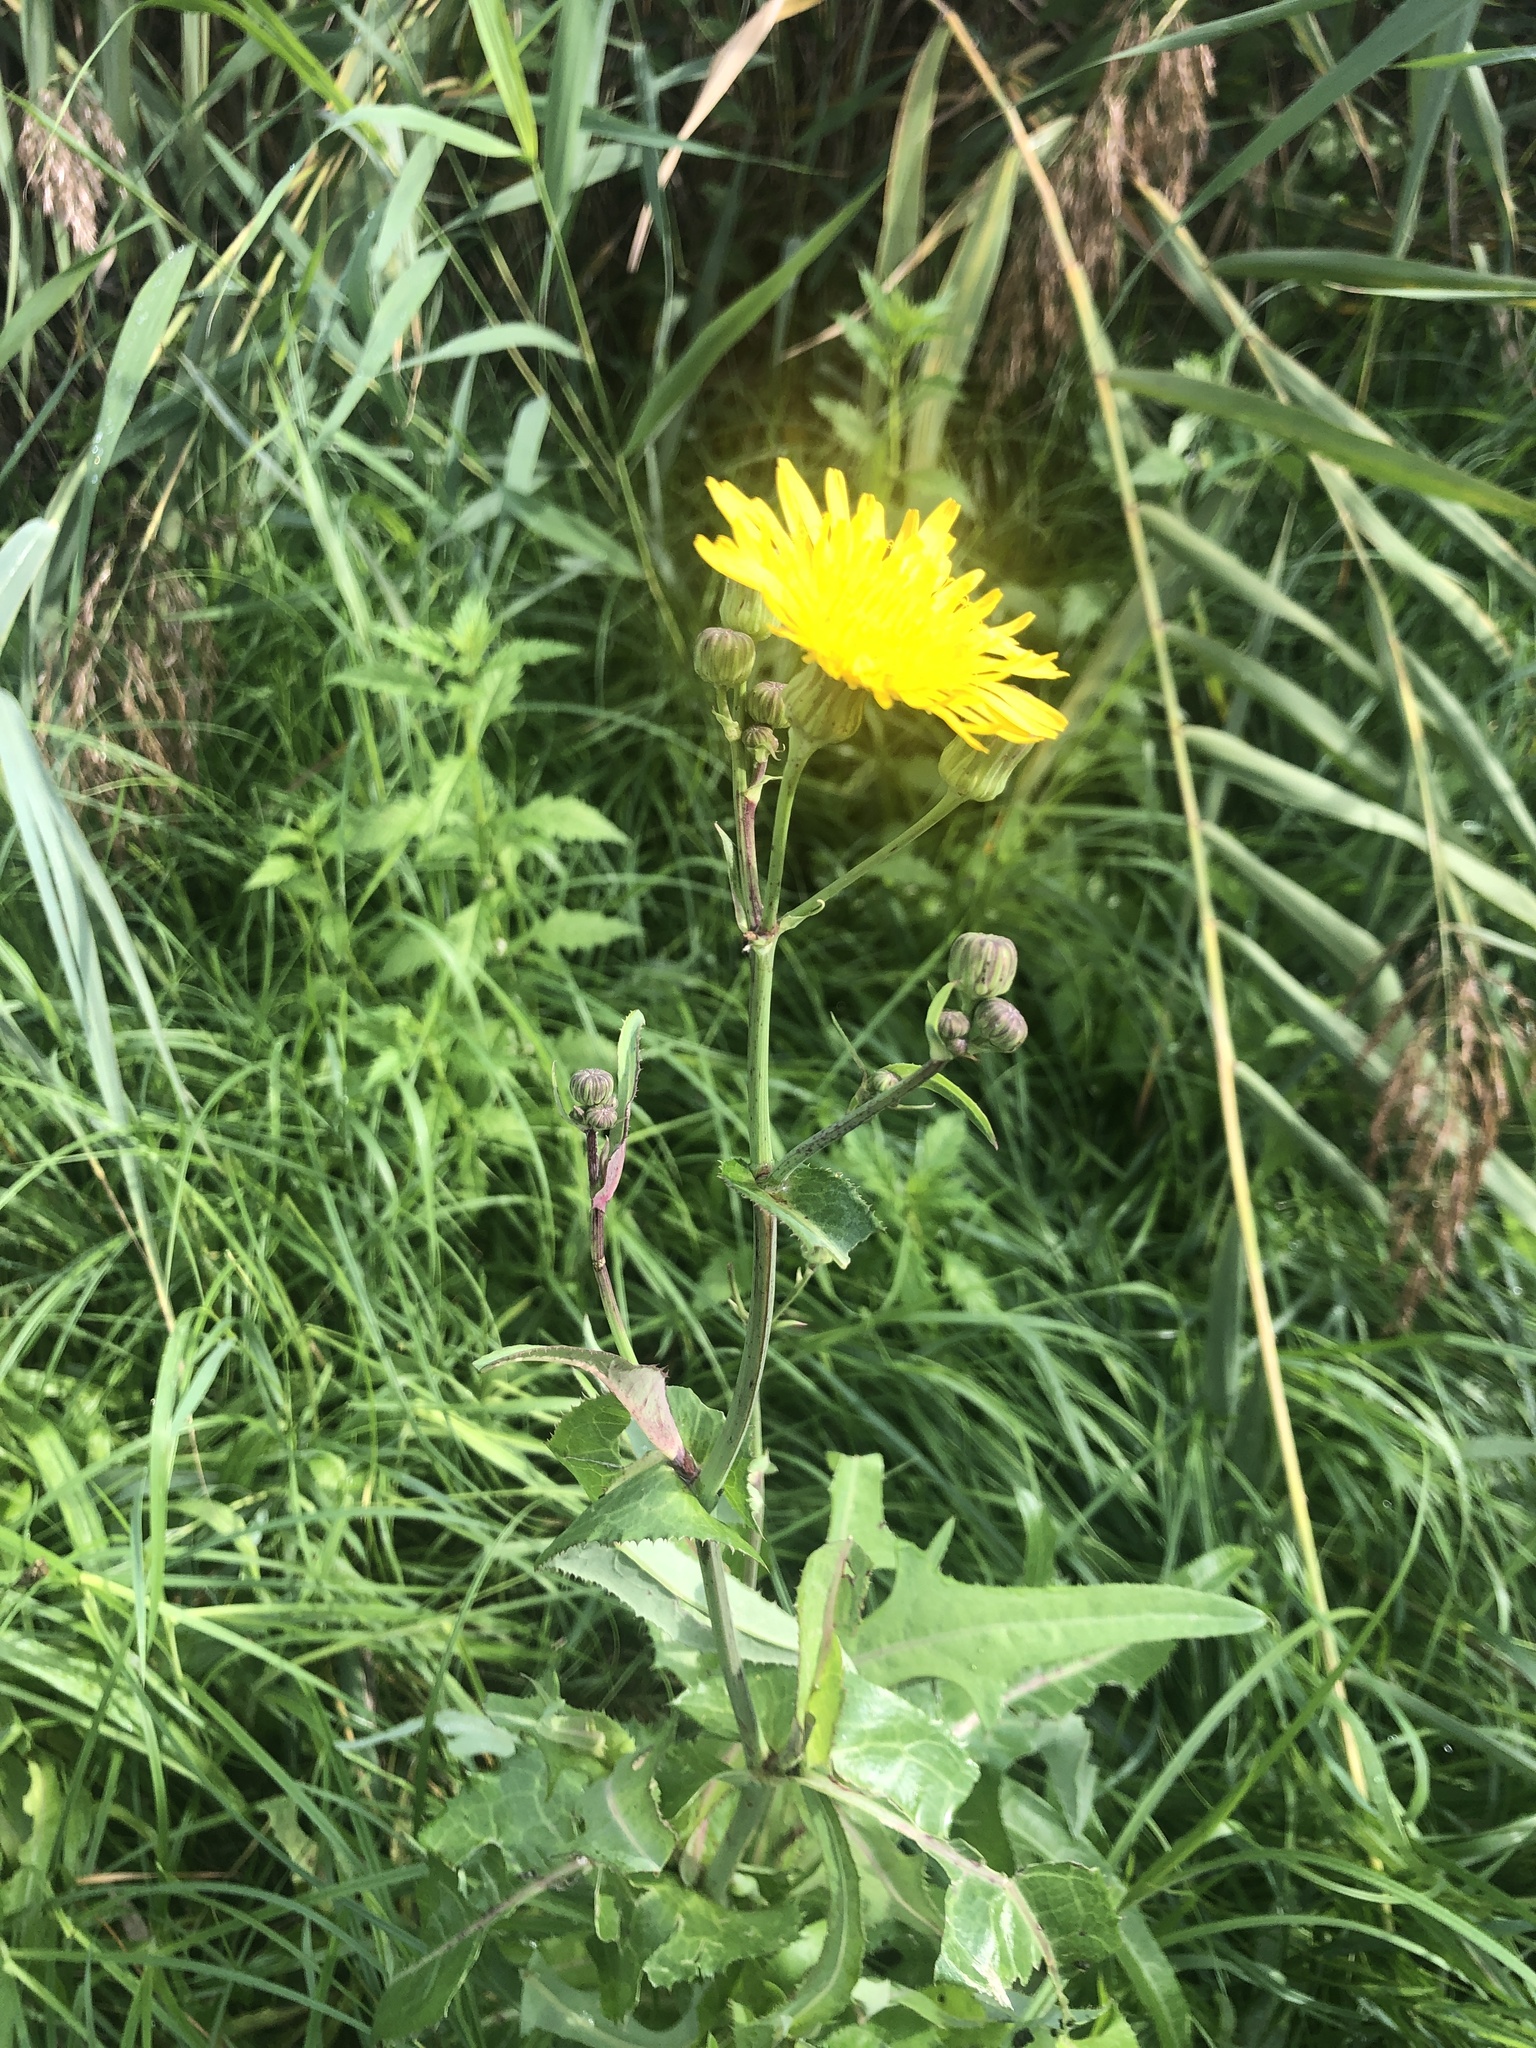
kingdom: Plantae
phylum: Tracheophyta
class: Magnoliopsida
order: Asterales
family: Asteraceae
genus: Sonchus
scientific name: Sonchus arvensis
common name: Perennial sow-thistle
